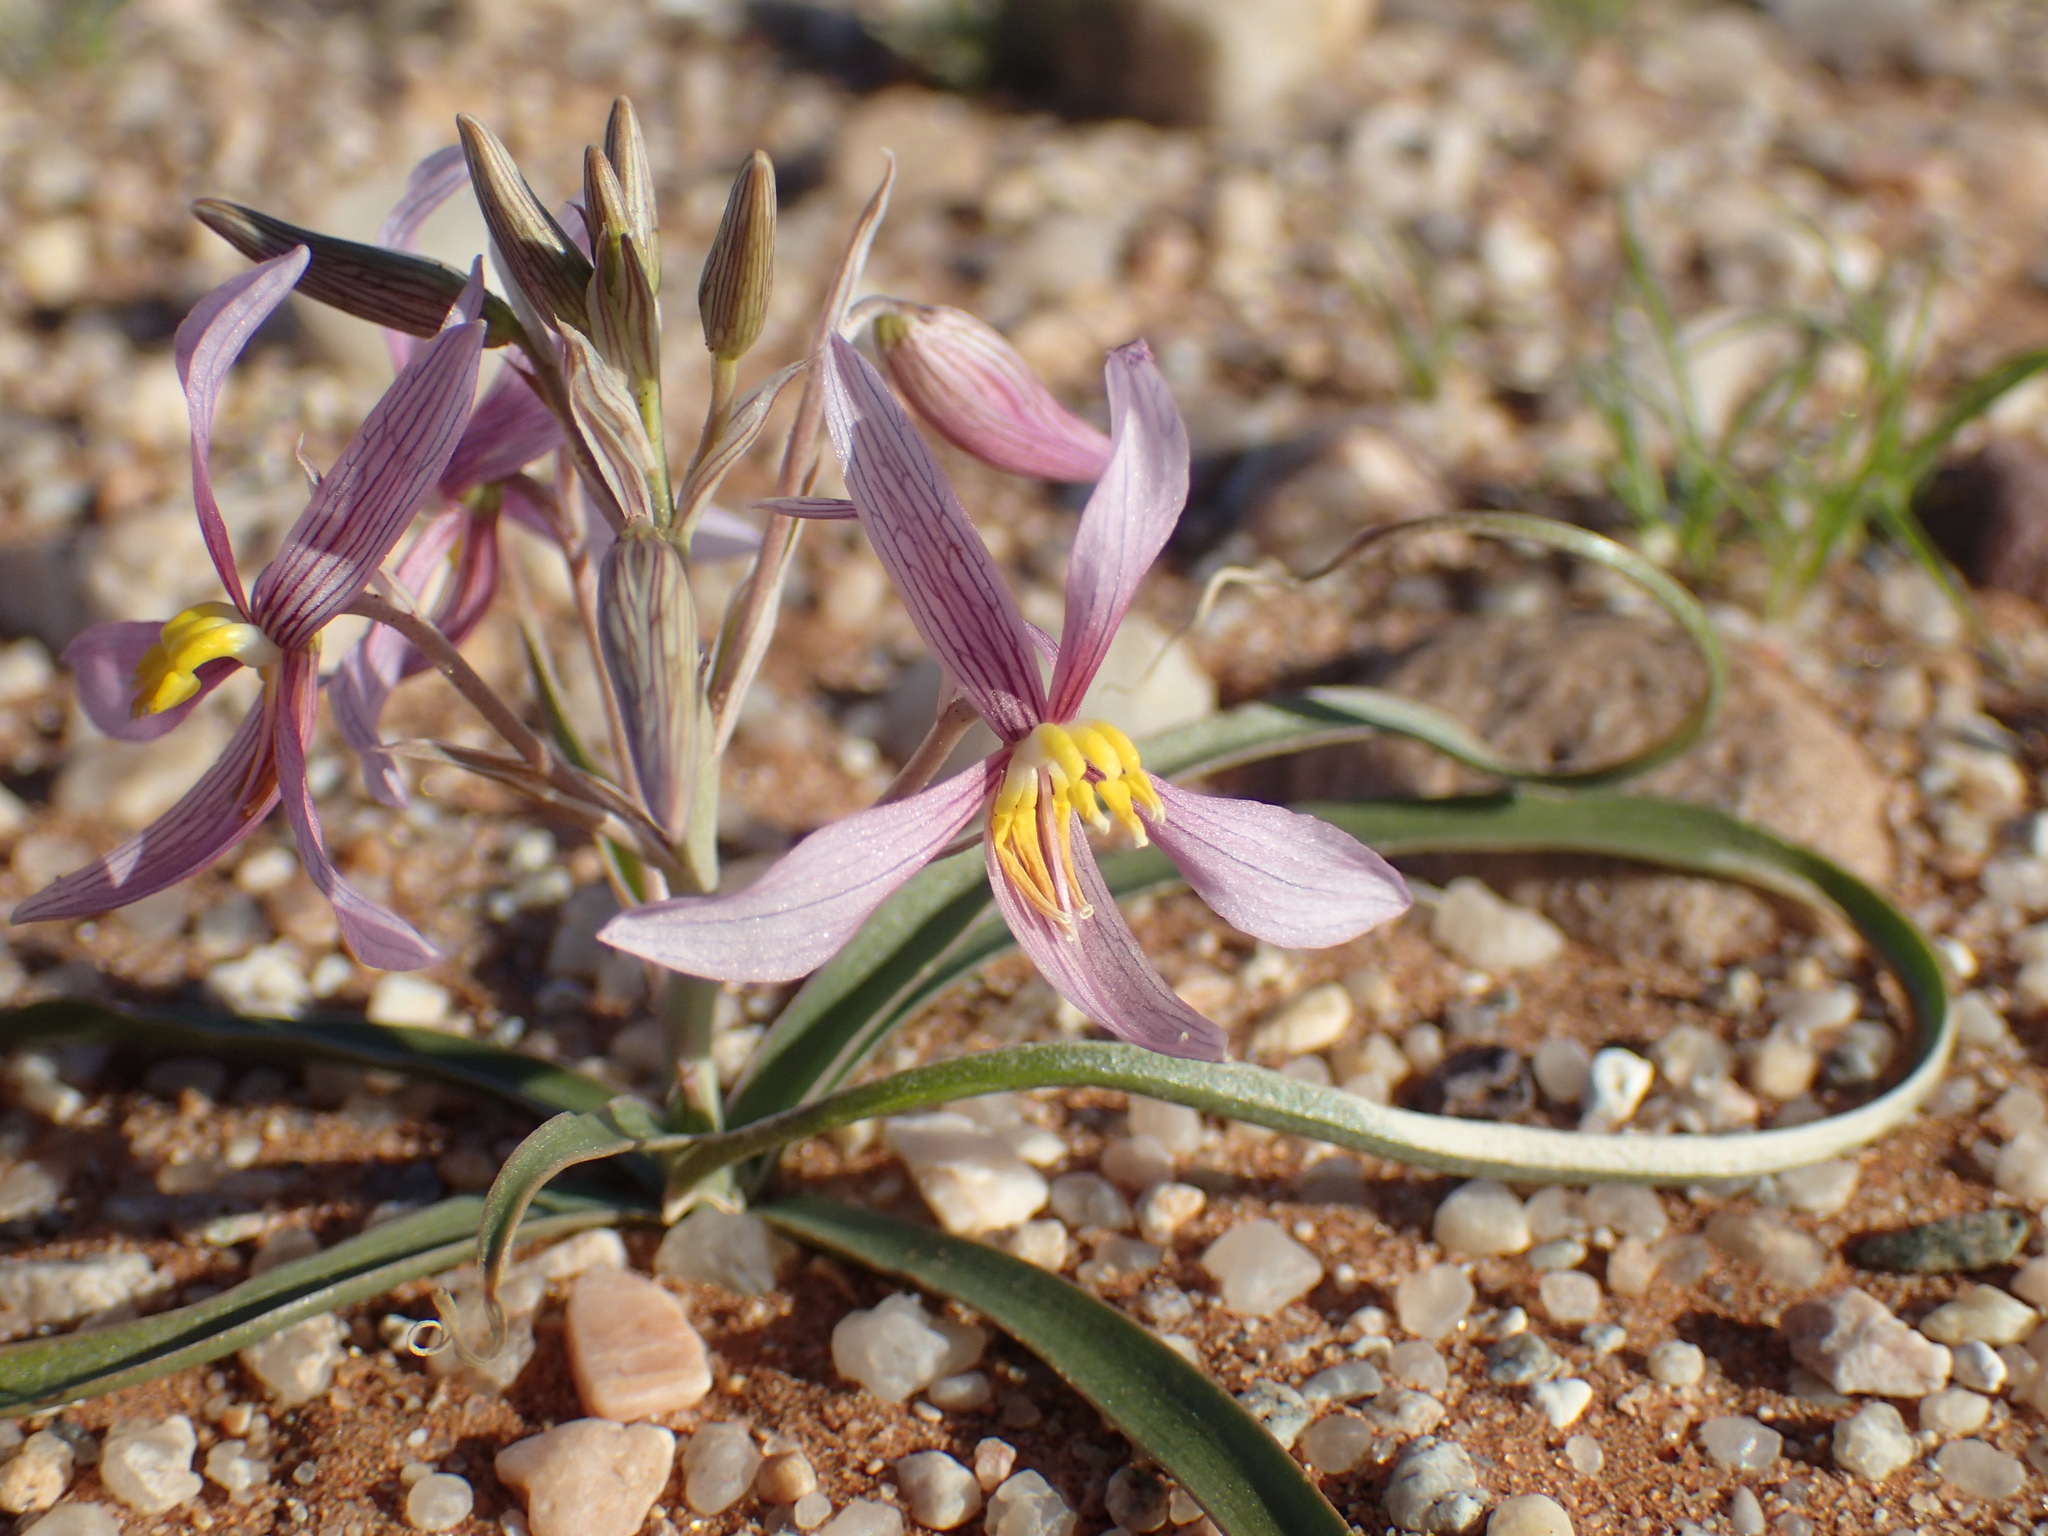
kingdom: Plantae
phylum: Tracheophyta
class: Liliopsida
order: Asparagales
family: Tecophilaeaceae
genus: Cyanella
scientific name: Cyanella ramosissima
